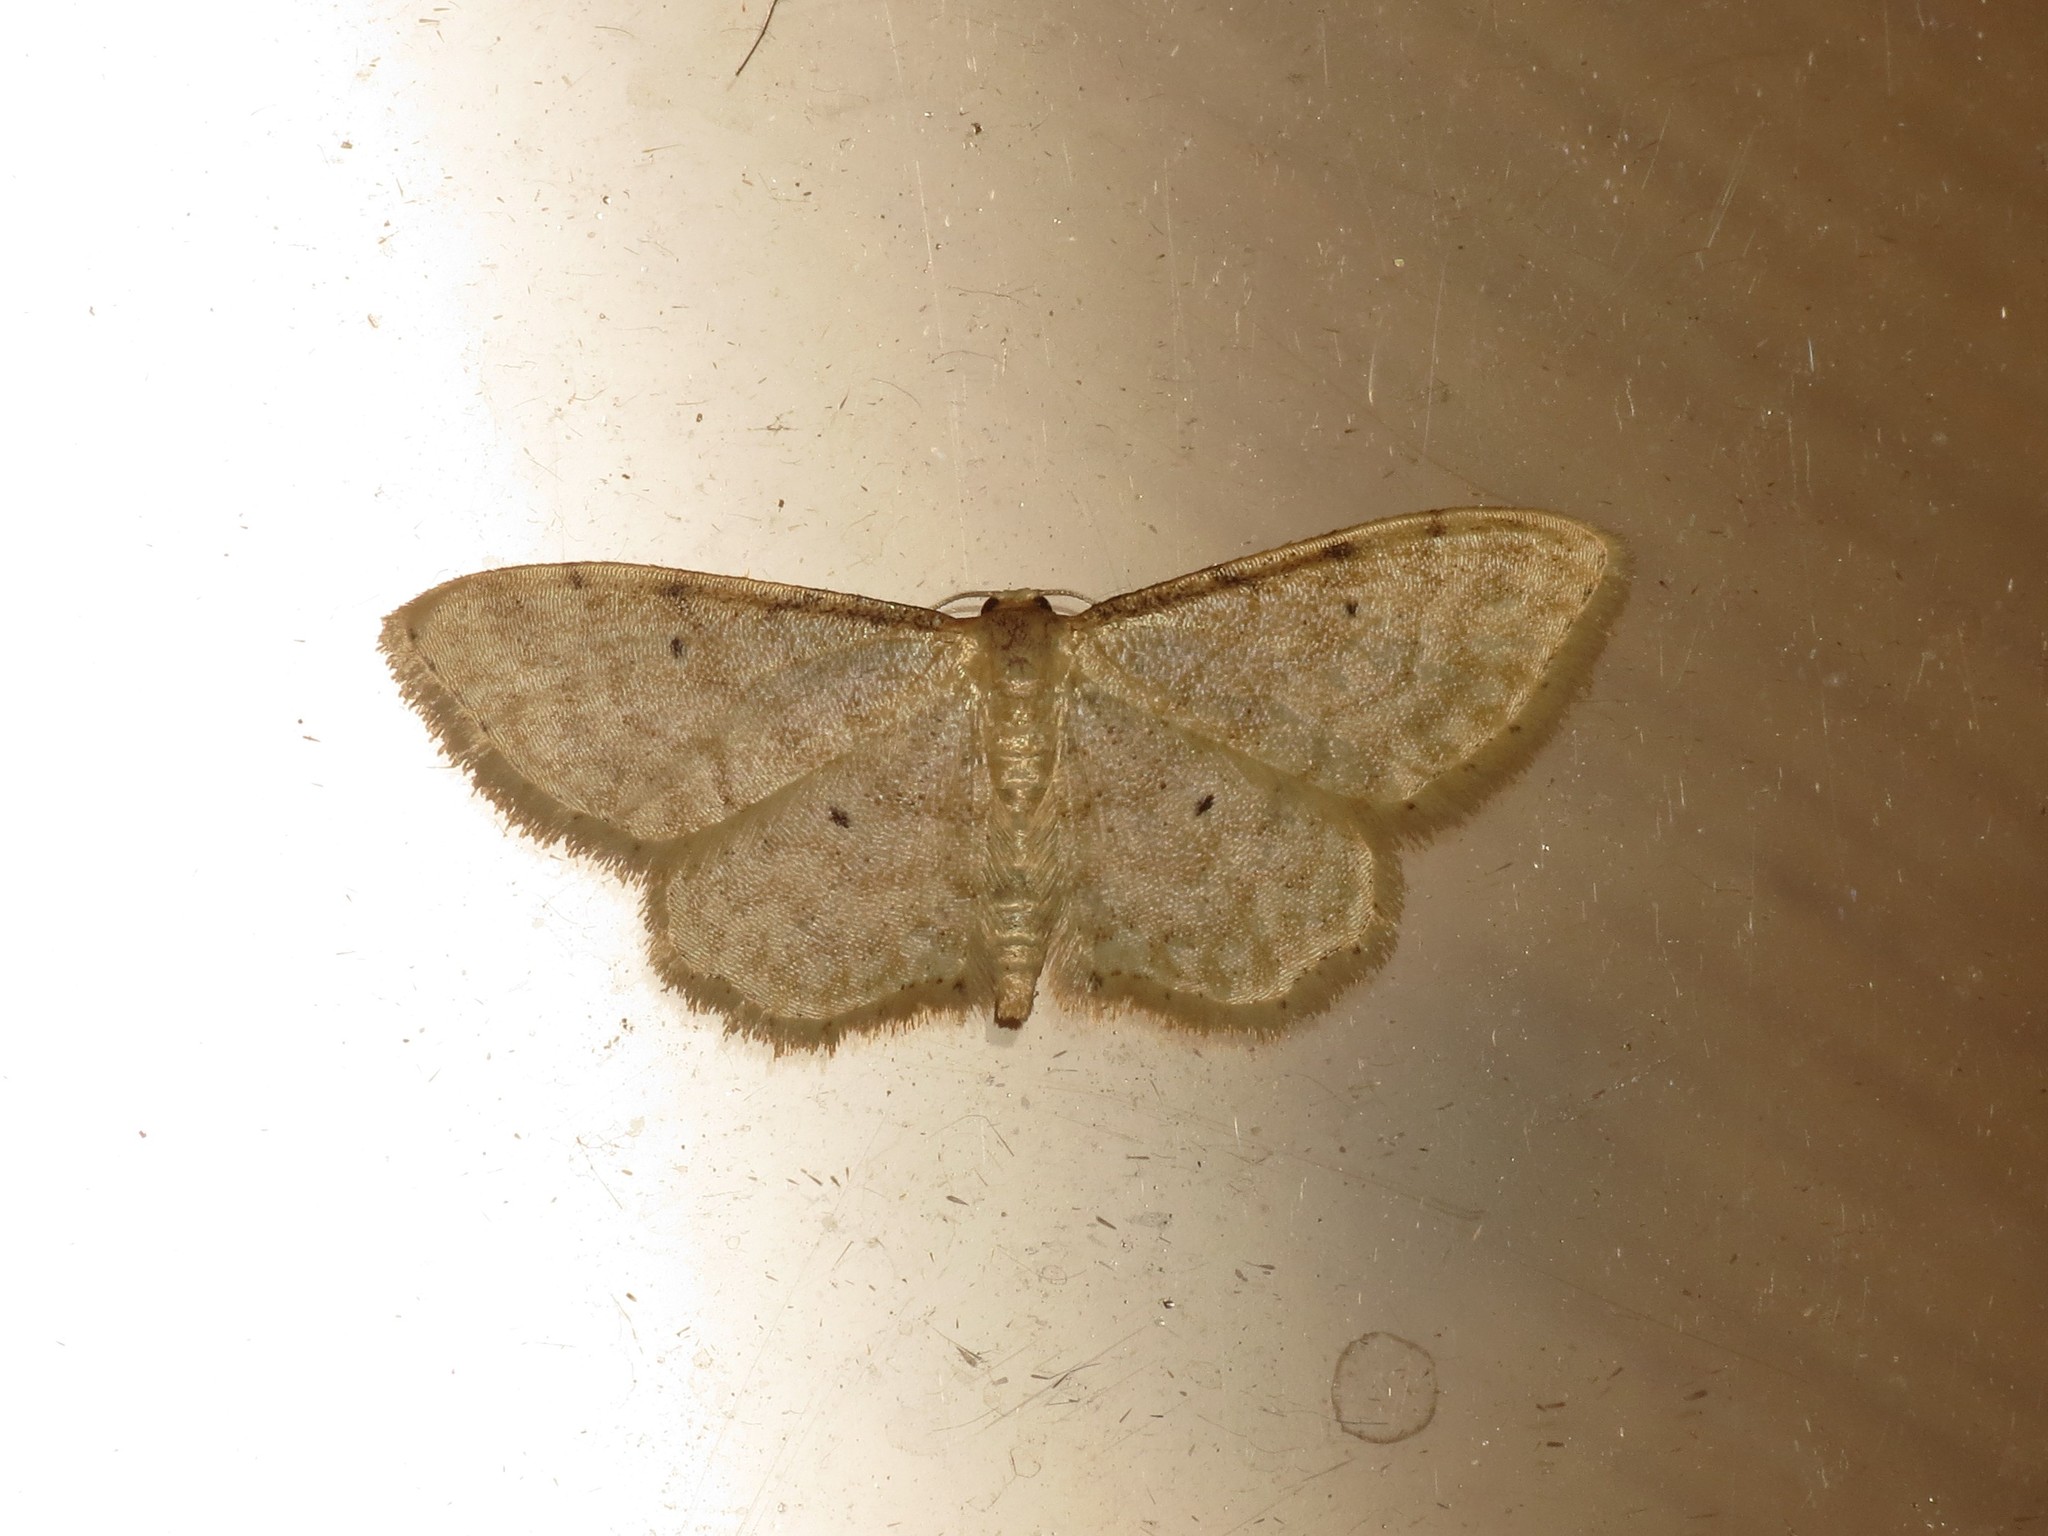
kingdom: Animalia
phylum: Arthropoda
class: Insecta
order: Lepidoptera
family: Geometridae
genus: Idaea
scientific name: Idaea fuscovenosa
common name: Dwarf cream wave
